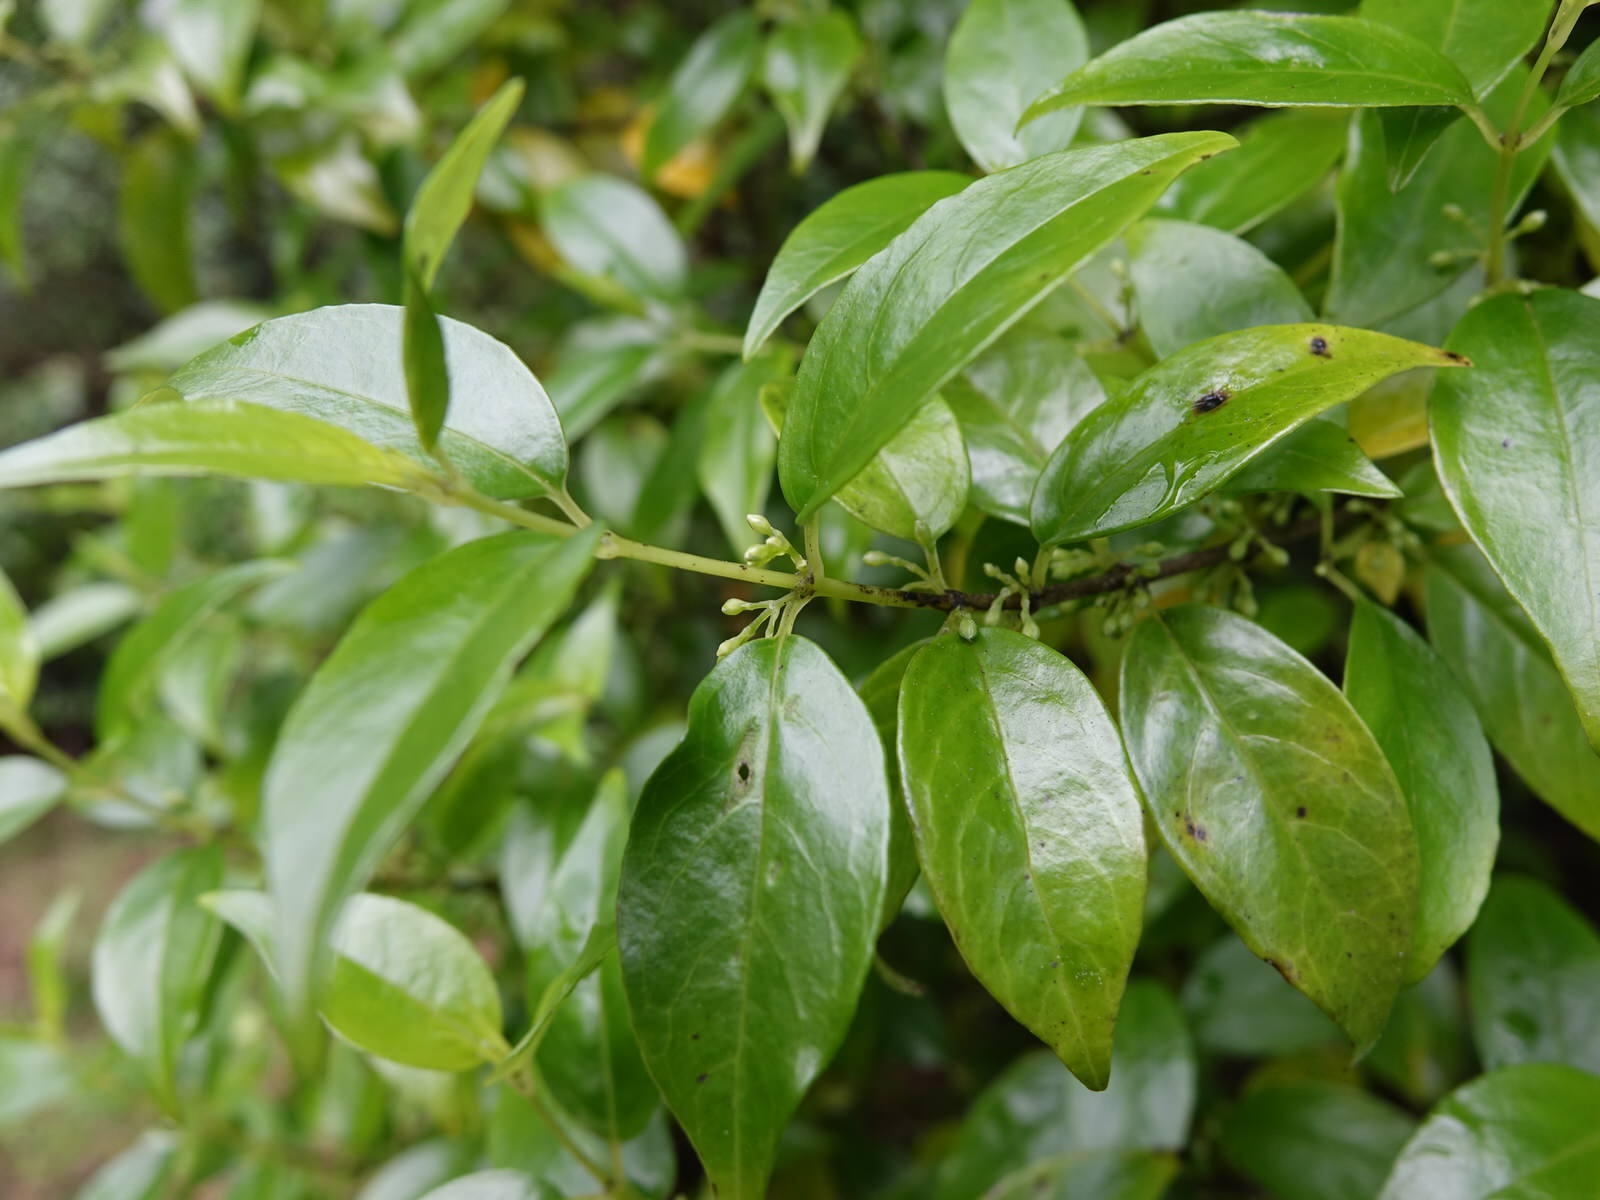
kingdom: Plantae
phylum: Tracheophyta
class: Magnoliopsida
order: Gentianales
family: Loganiaceae
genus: Geniostoma
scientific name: Geniostoma ligustrifolium
